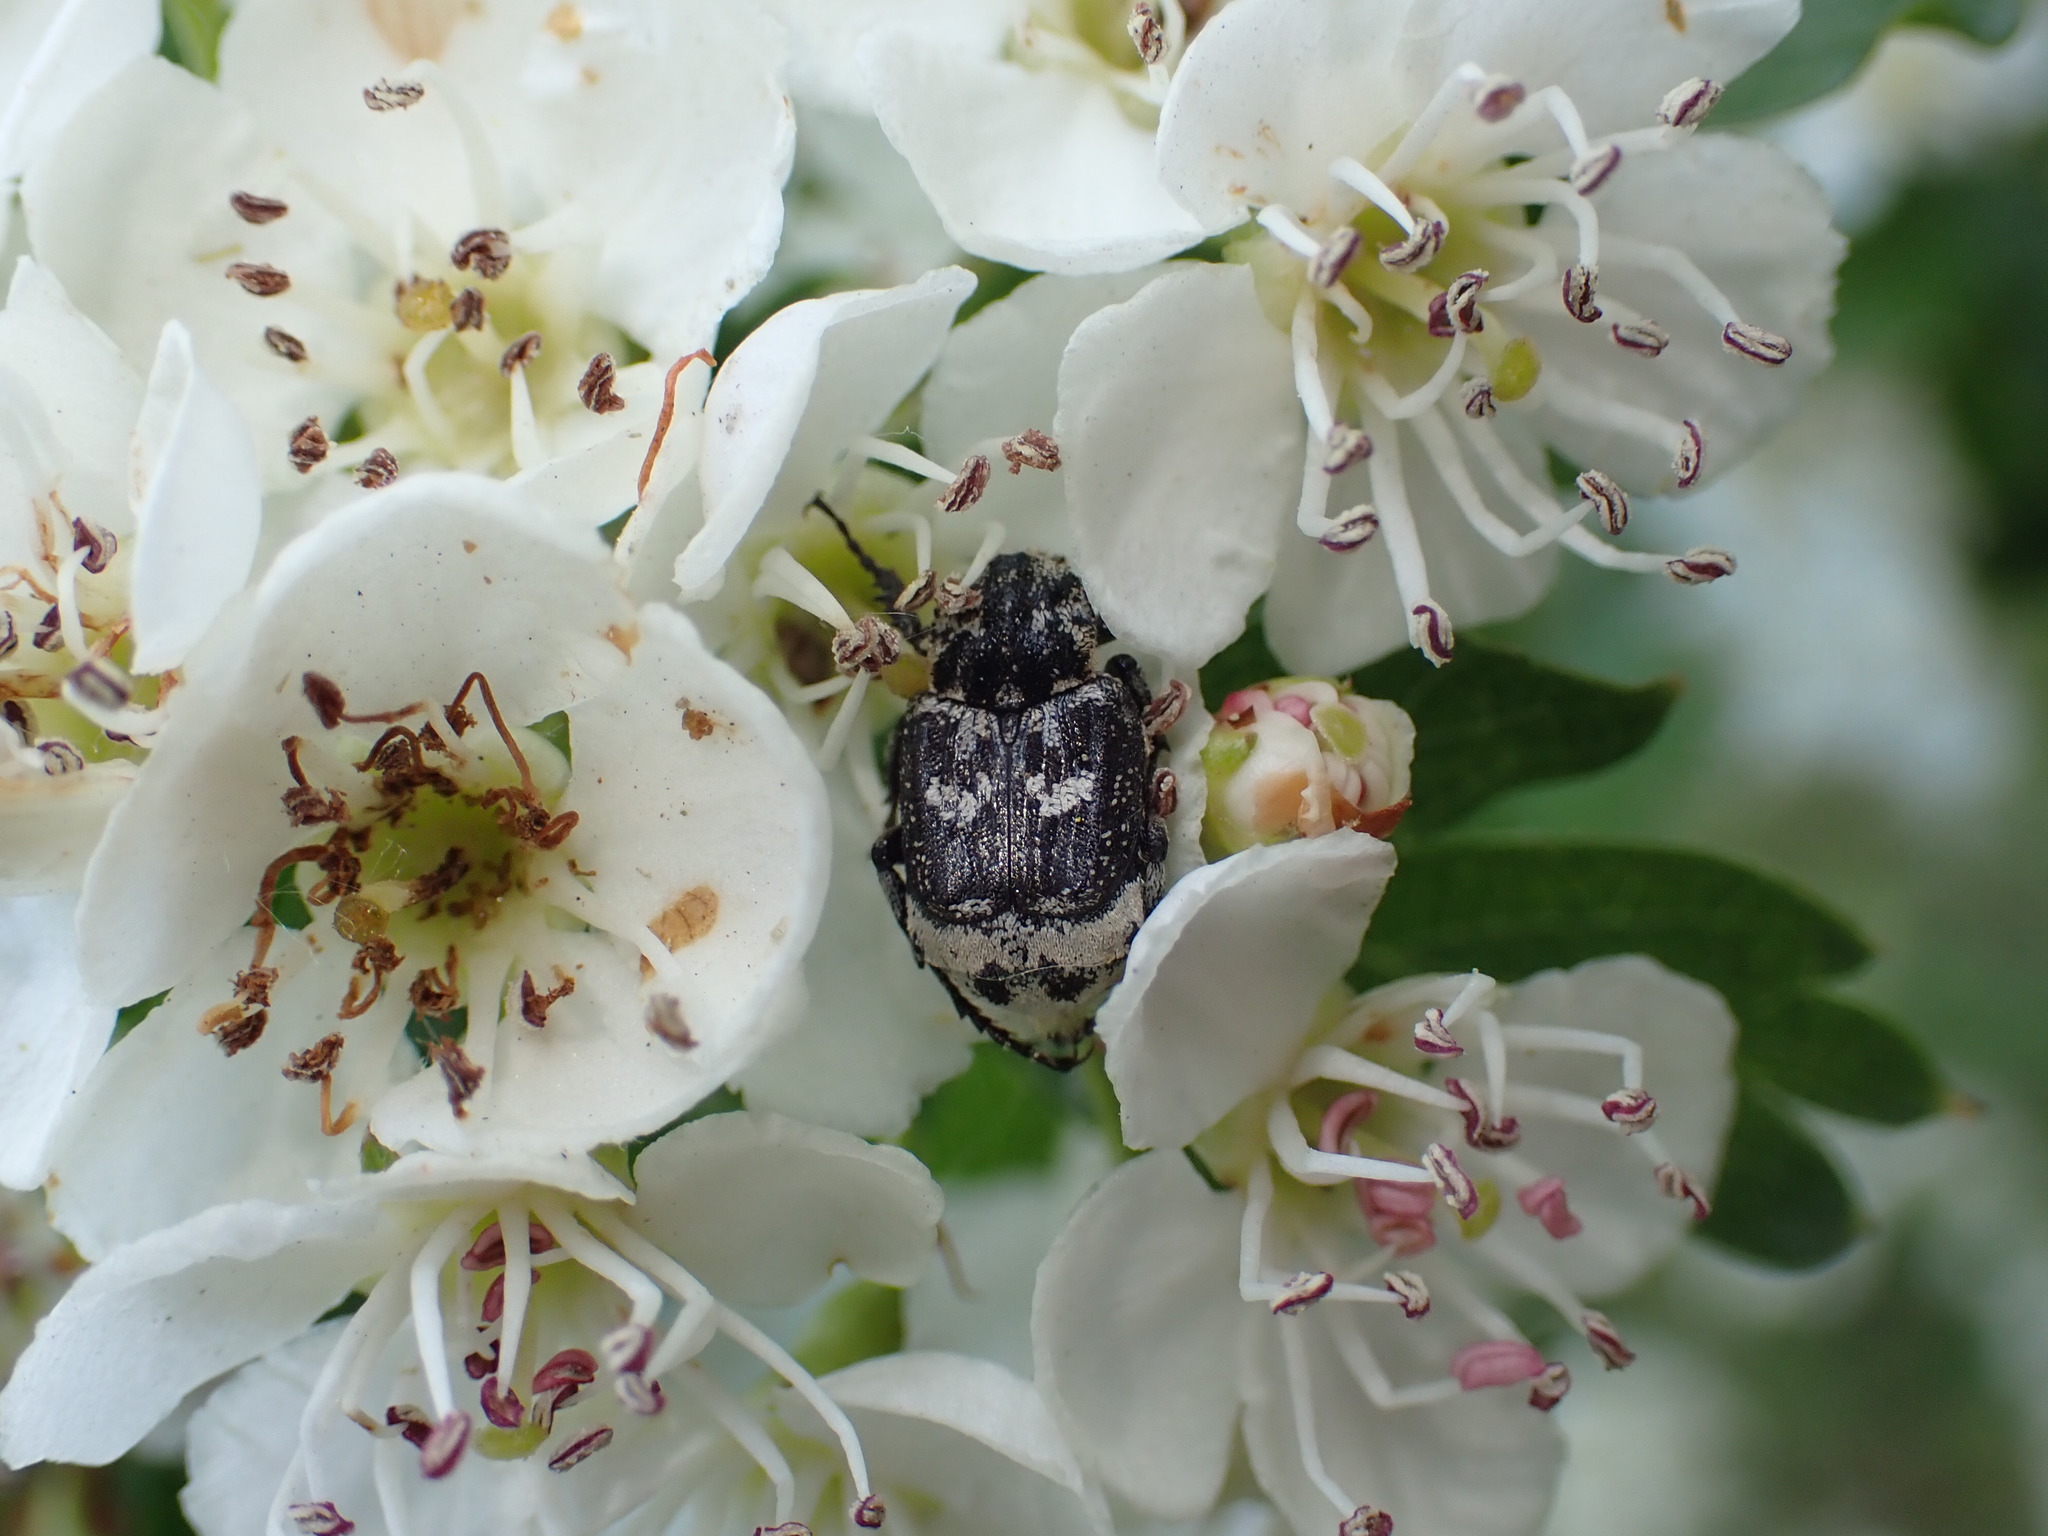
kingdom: Animalia
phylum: Arthropoda
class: Insecta
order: Coleoptera
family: Scarabaeidae
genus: Valgus
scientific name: Valgus hemipterus
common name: Bug flower chafer
